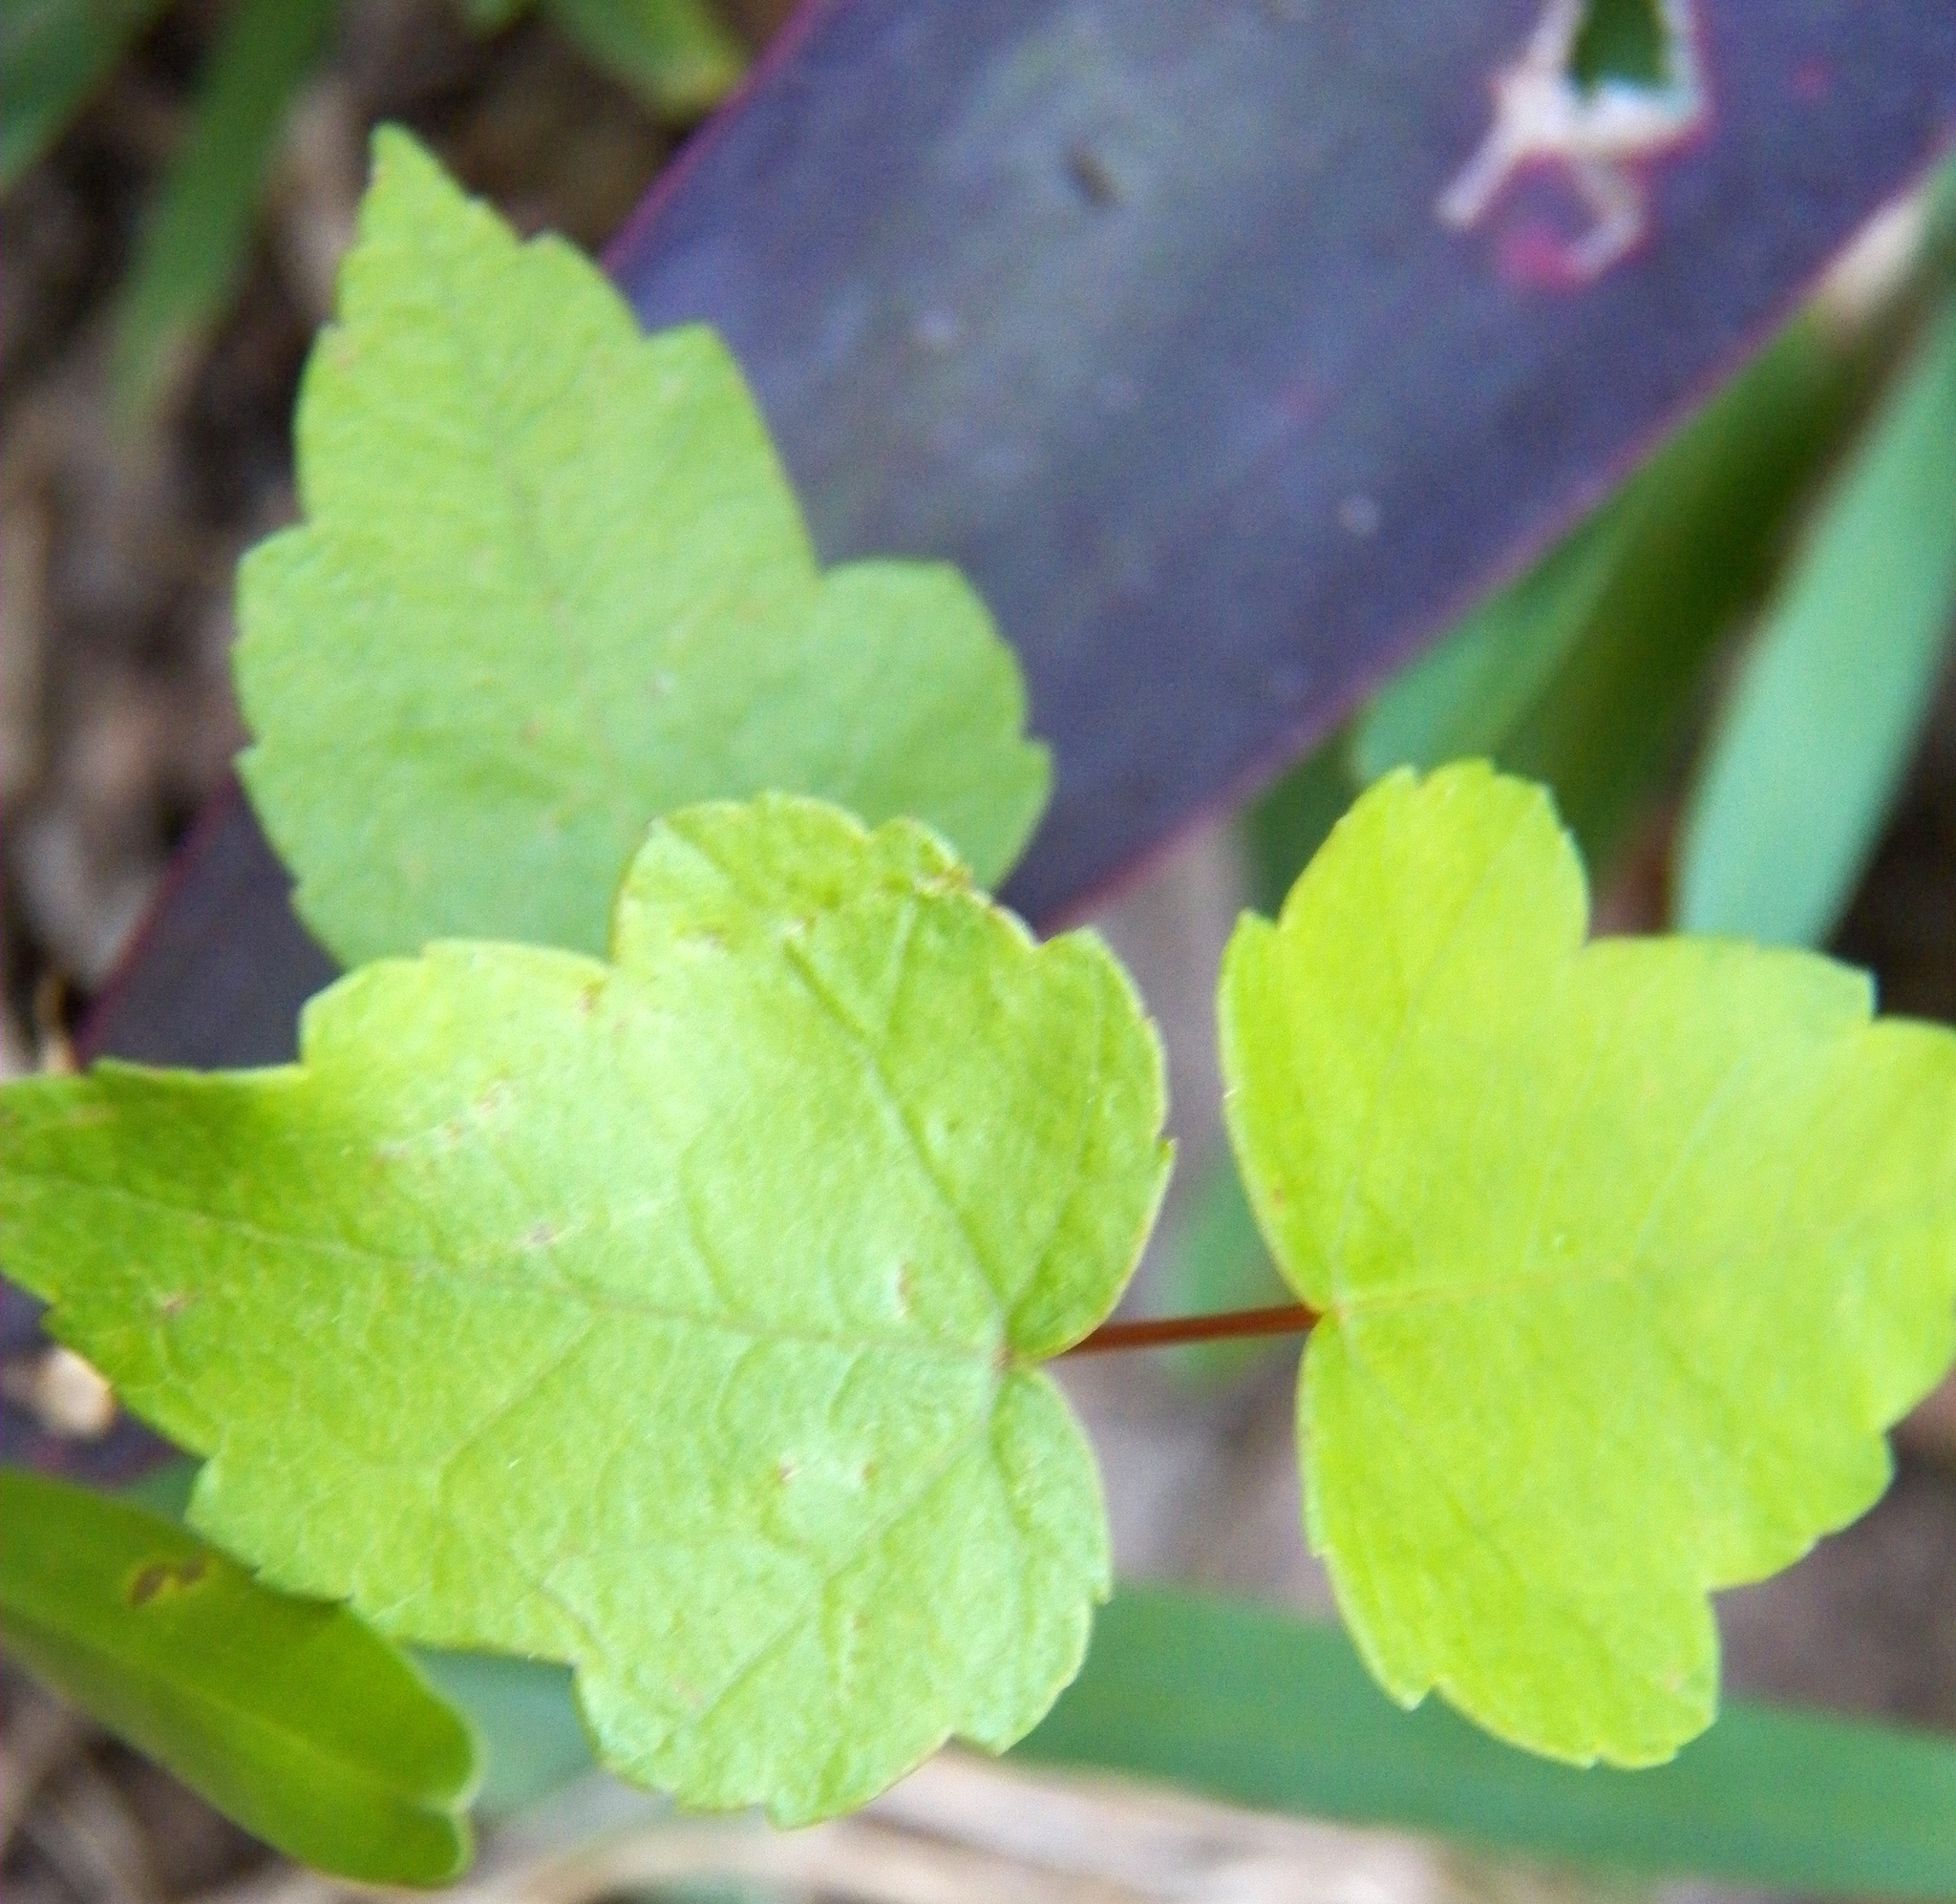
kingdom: Plantae
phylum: Tracheophyta
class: Magnoliopsida
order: Sapindales
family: Sapindaceae
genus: Acer
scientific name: Acer rubrum
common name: Red maple
